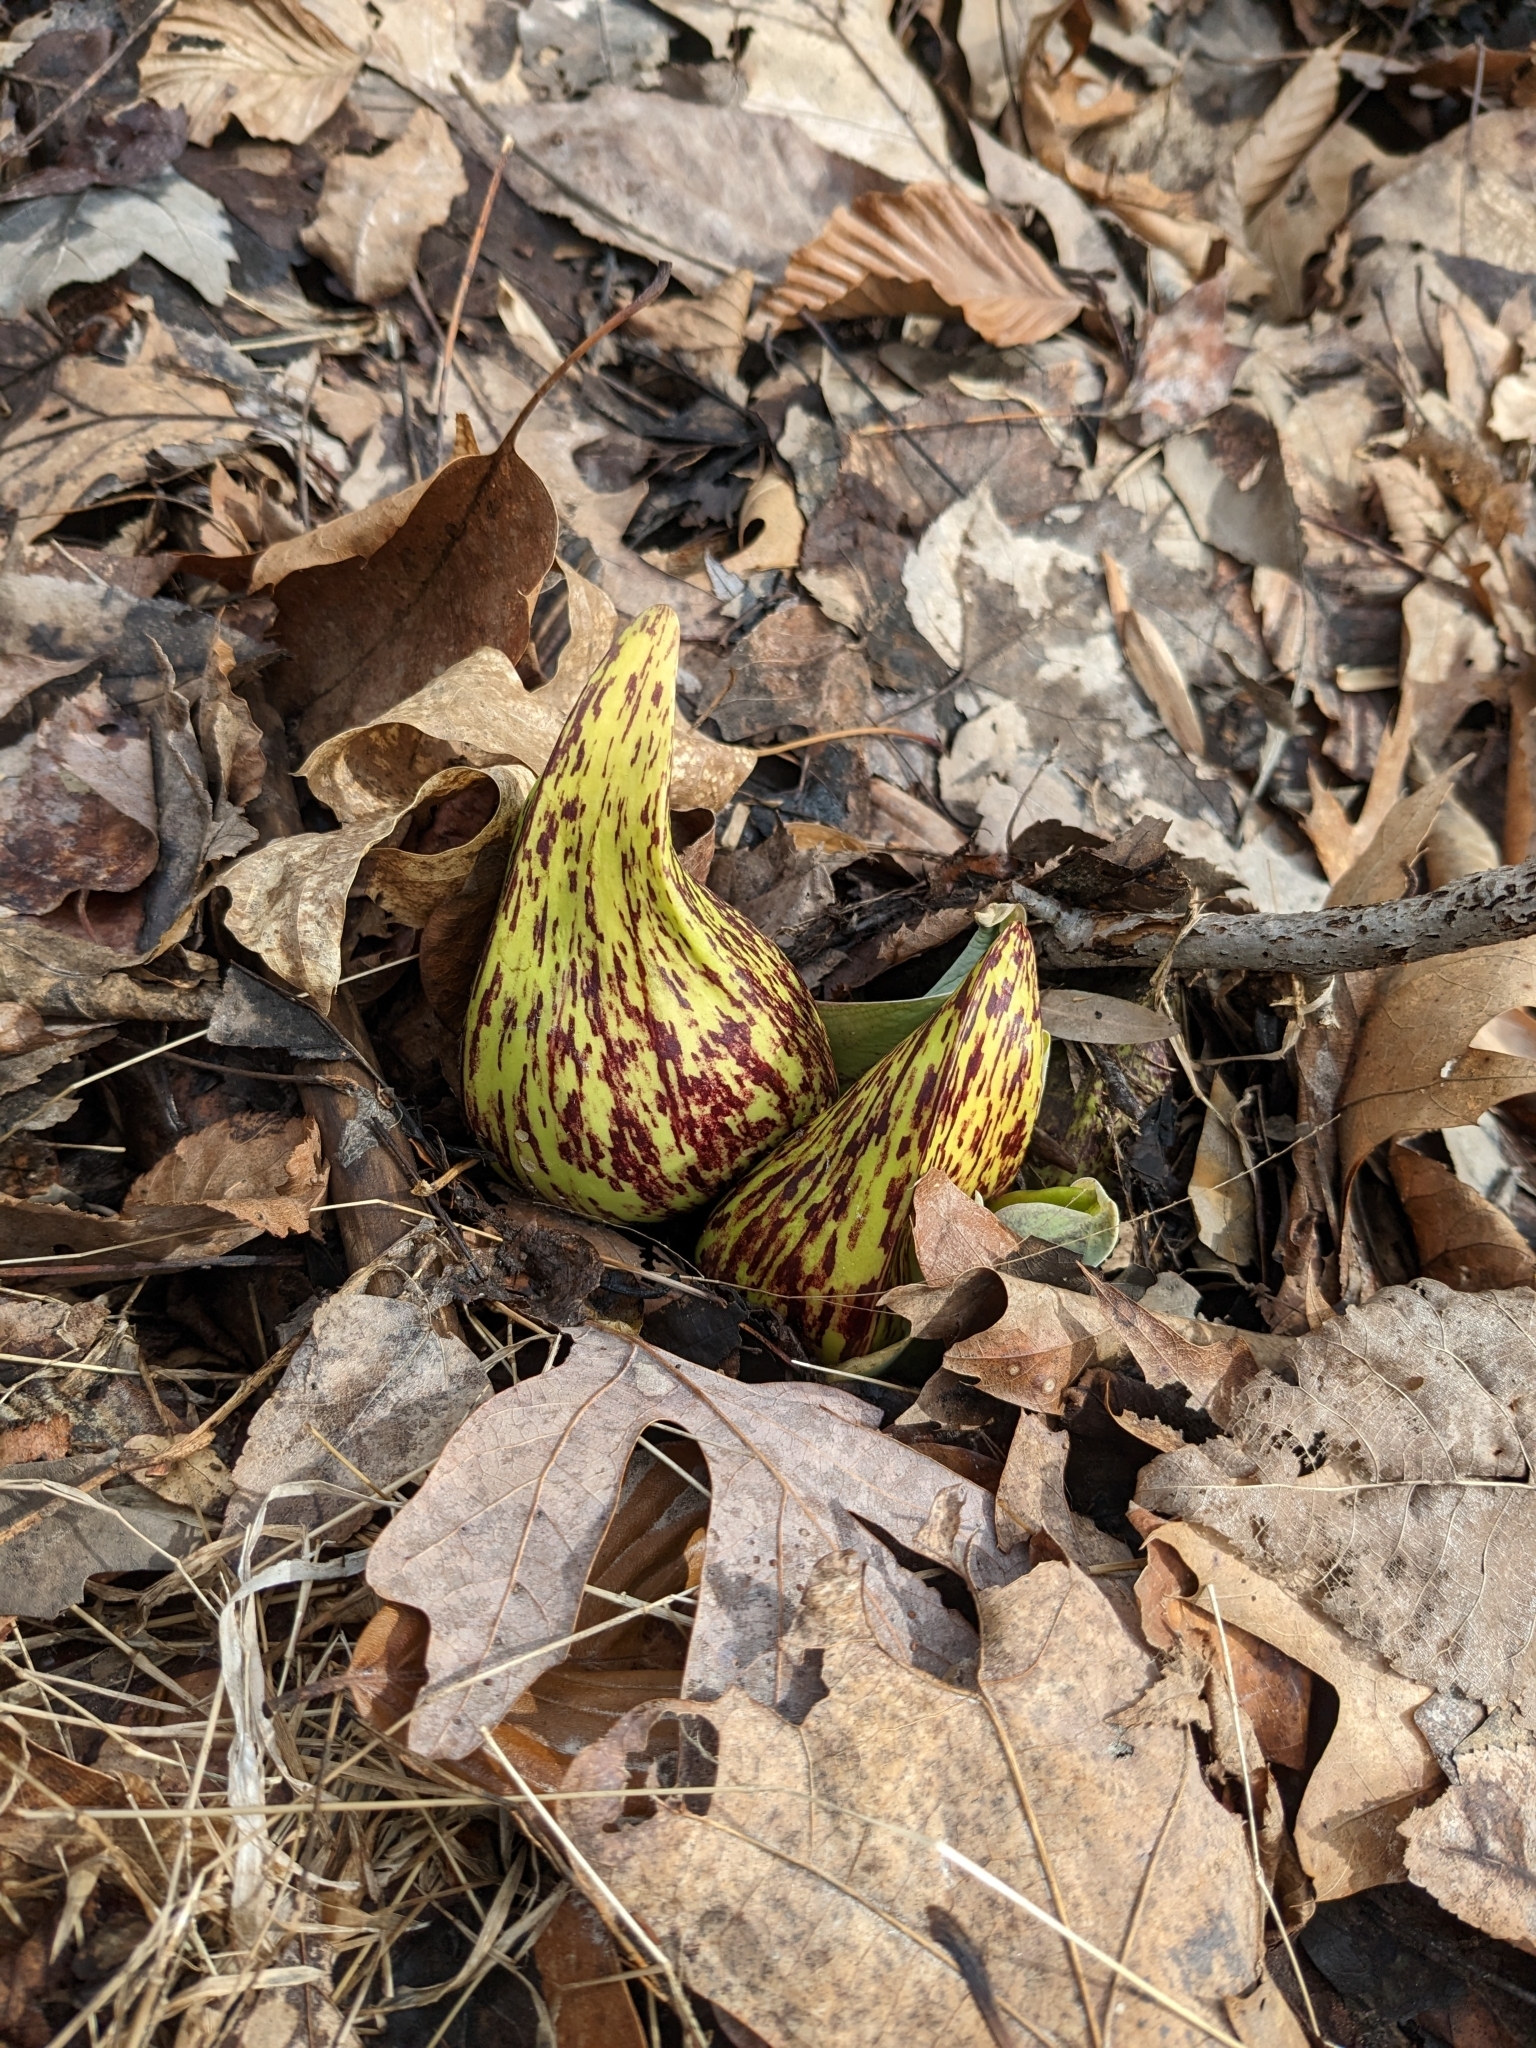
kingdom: Plantae
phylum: Tracheophyta
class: Liliopsida
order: Alismatales
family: Araceae
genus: Symplocarpus
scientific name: Symplocarpus foetidus
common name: Eastern skunk cabbage
